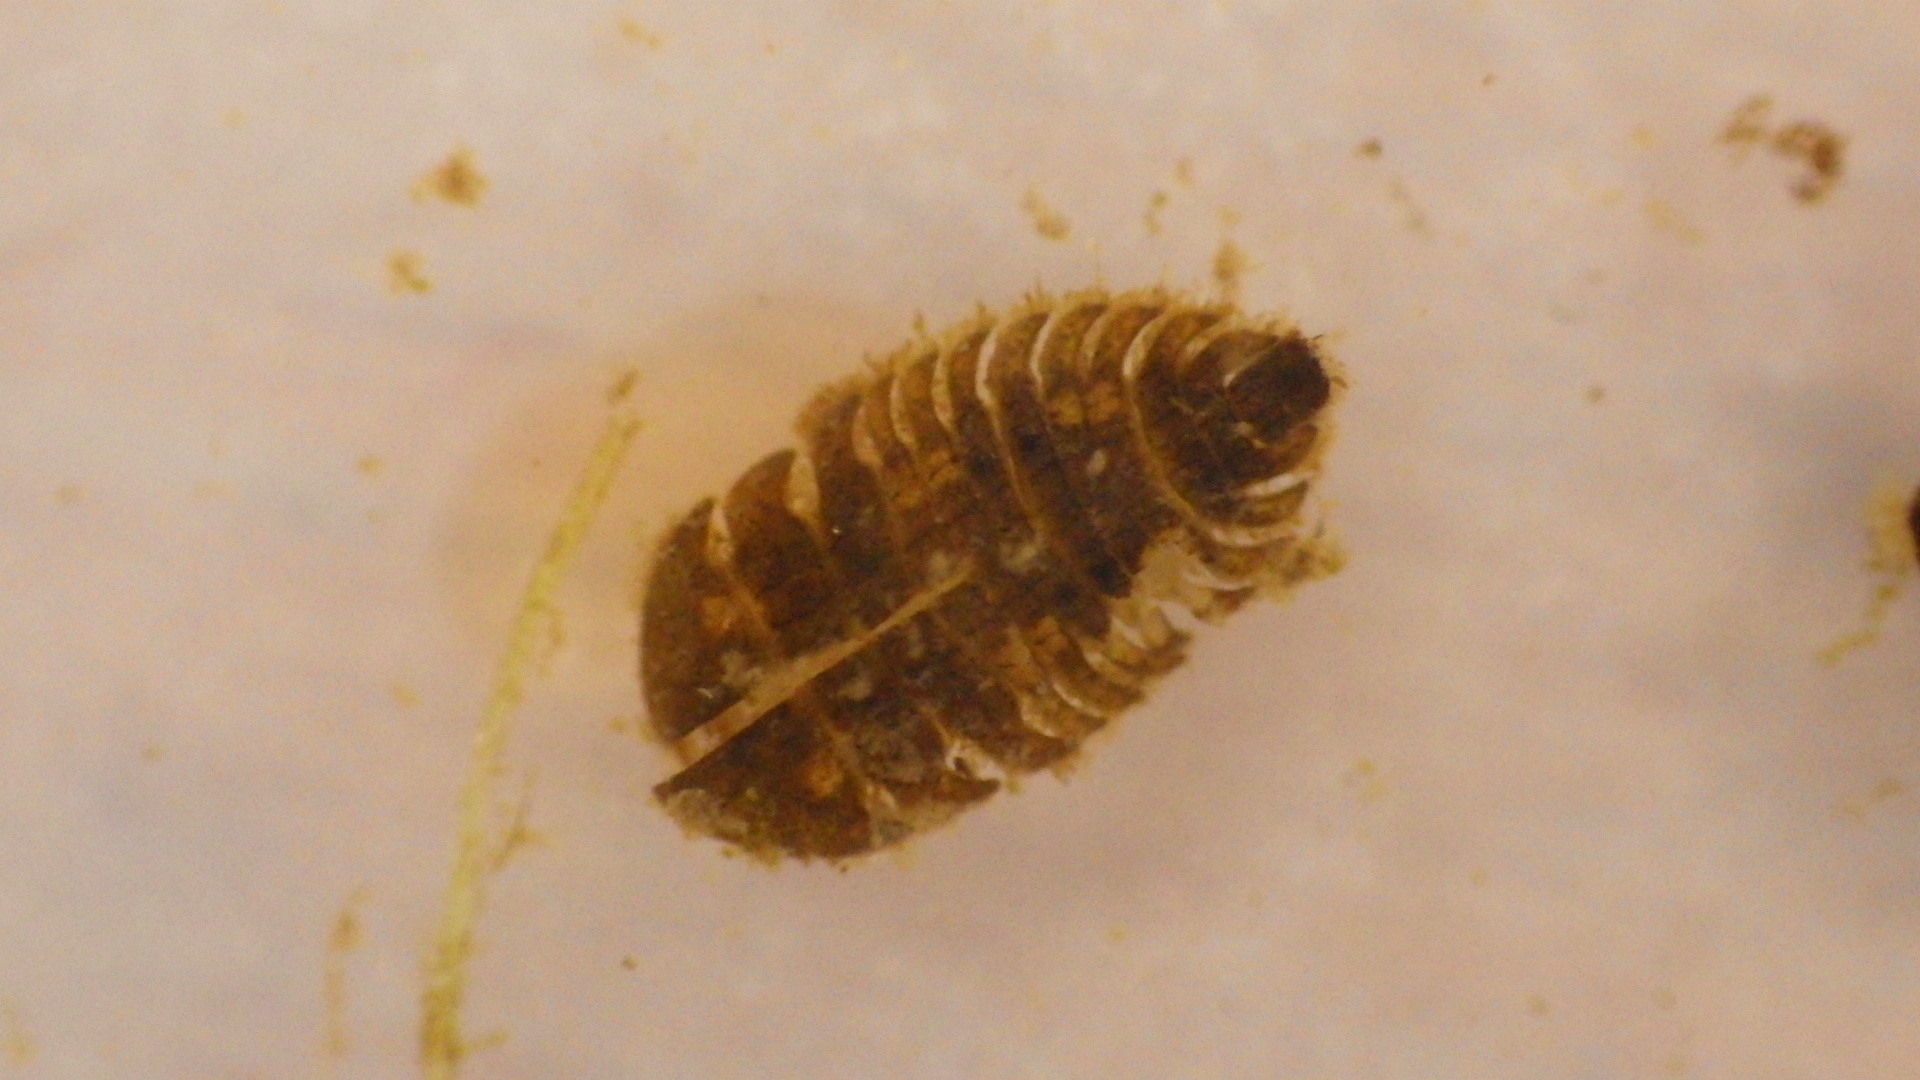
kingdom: Animalia
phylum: Arthropoda
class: Insecta
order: Coleoptera
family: Psephenidae
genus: Ectopria
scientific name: Ectopria nervosa
